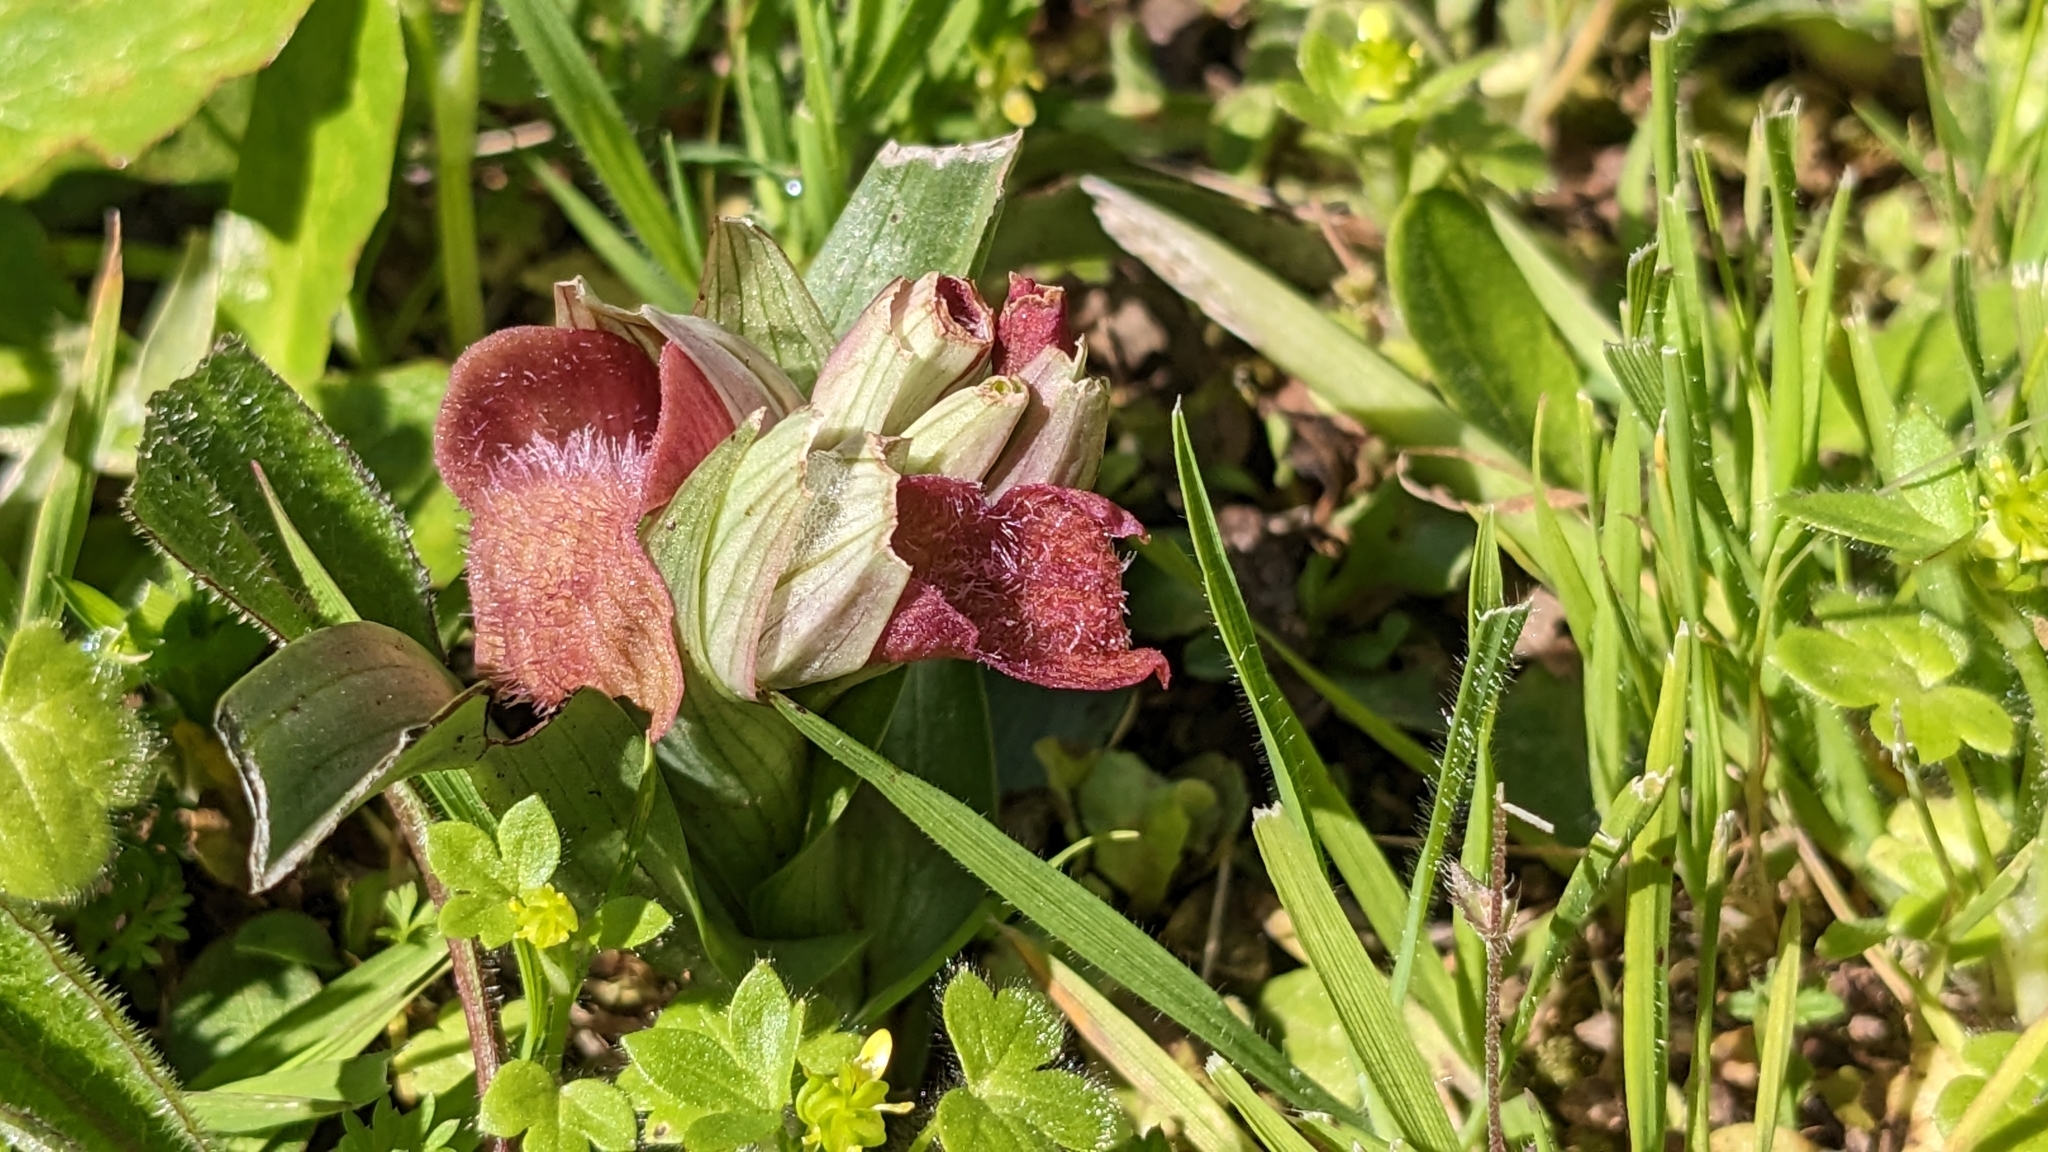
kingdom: Plantae
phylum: Tracheophyta
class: Liliopsida
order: Asparagales
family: Orchidaceae
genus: Serapias
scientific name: Serapias neglecta
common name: Neglected serapias
